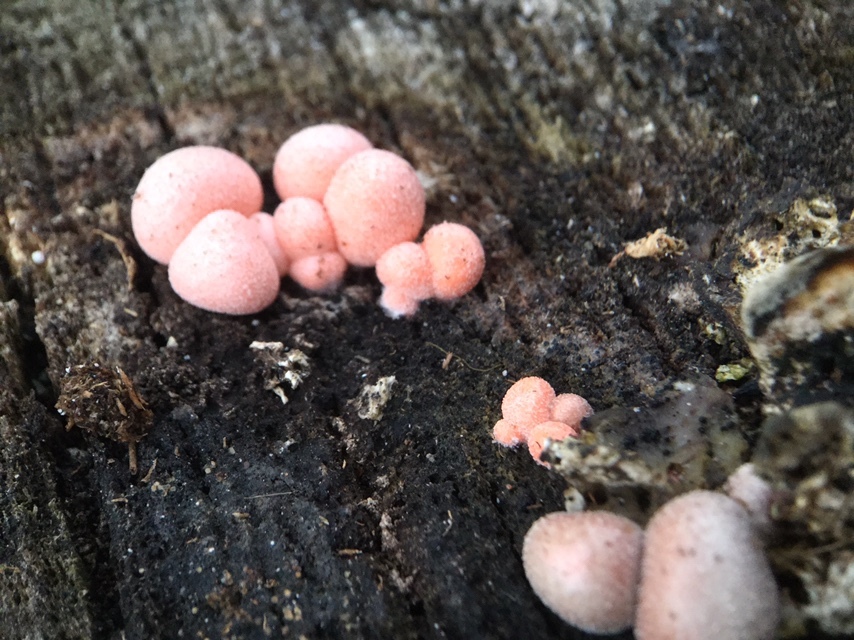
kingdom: Protozoa
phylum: Mycetozoa
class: Myxomycetes
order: Cribrariales
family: Tubiferaceae
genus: Lycogala
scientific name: Lycogala epidendrum
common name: Wolf's milk
